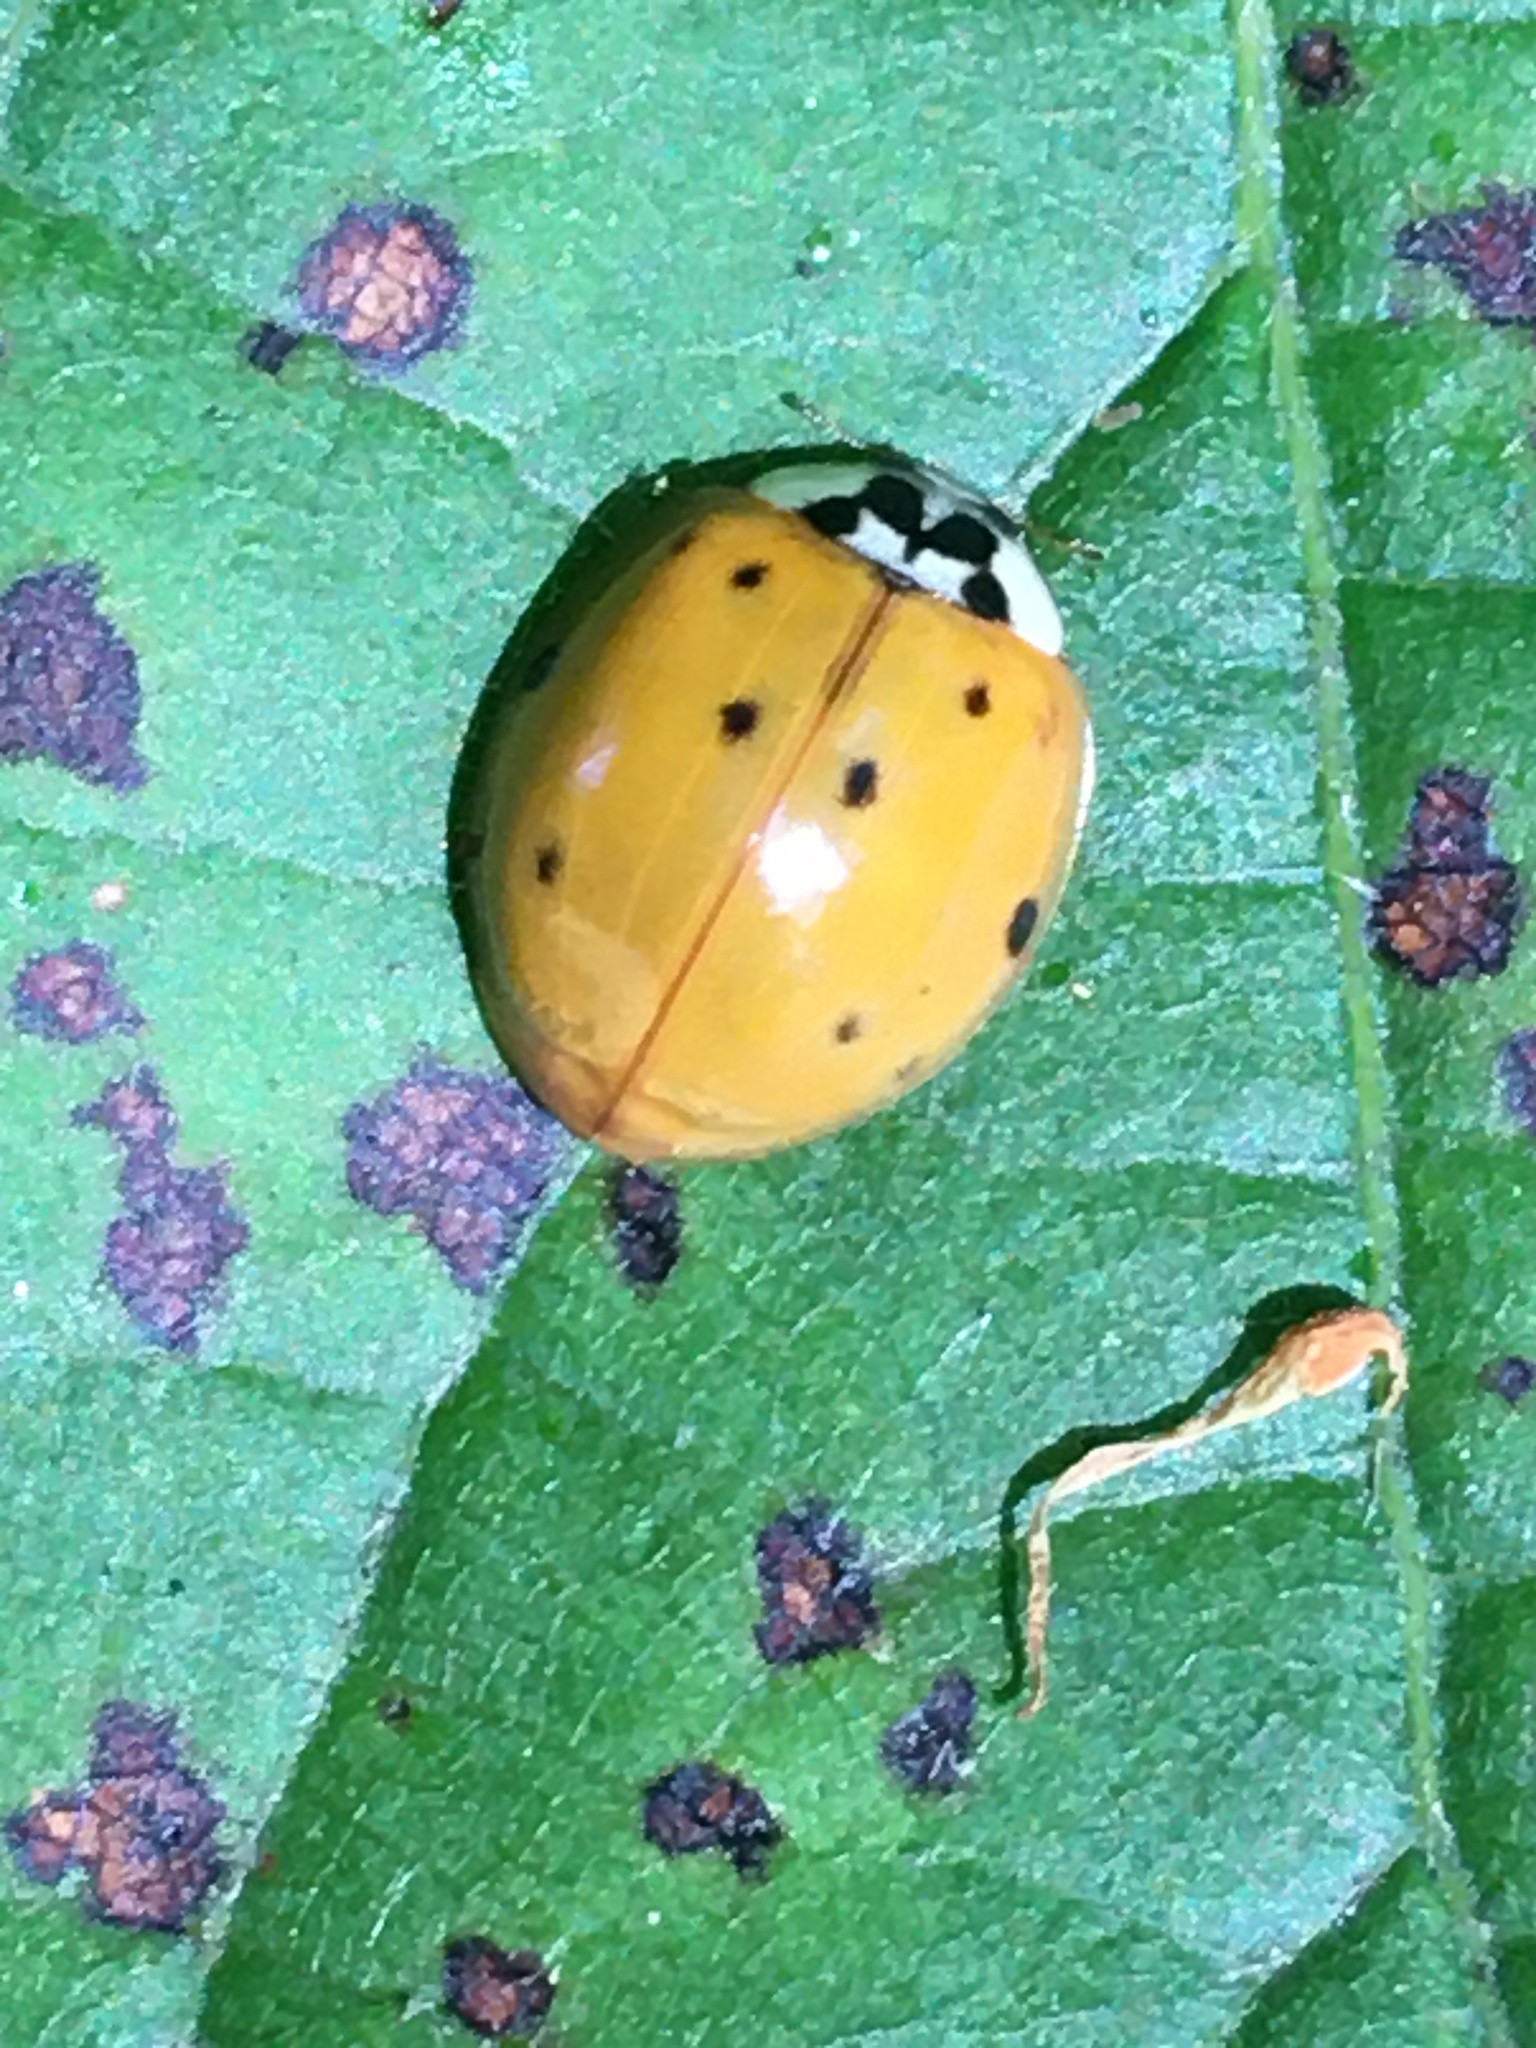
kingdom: Animalia
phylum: Arthropoda
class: Insecta
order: Coleoptera
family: Coccinellidae
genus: Harmonia
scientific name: Harmonia axyridis
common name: Harlequin ladybird
